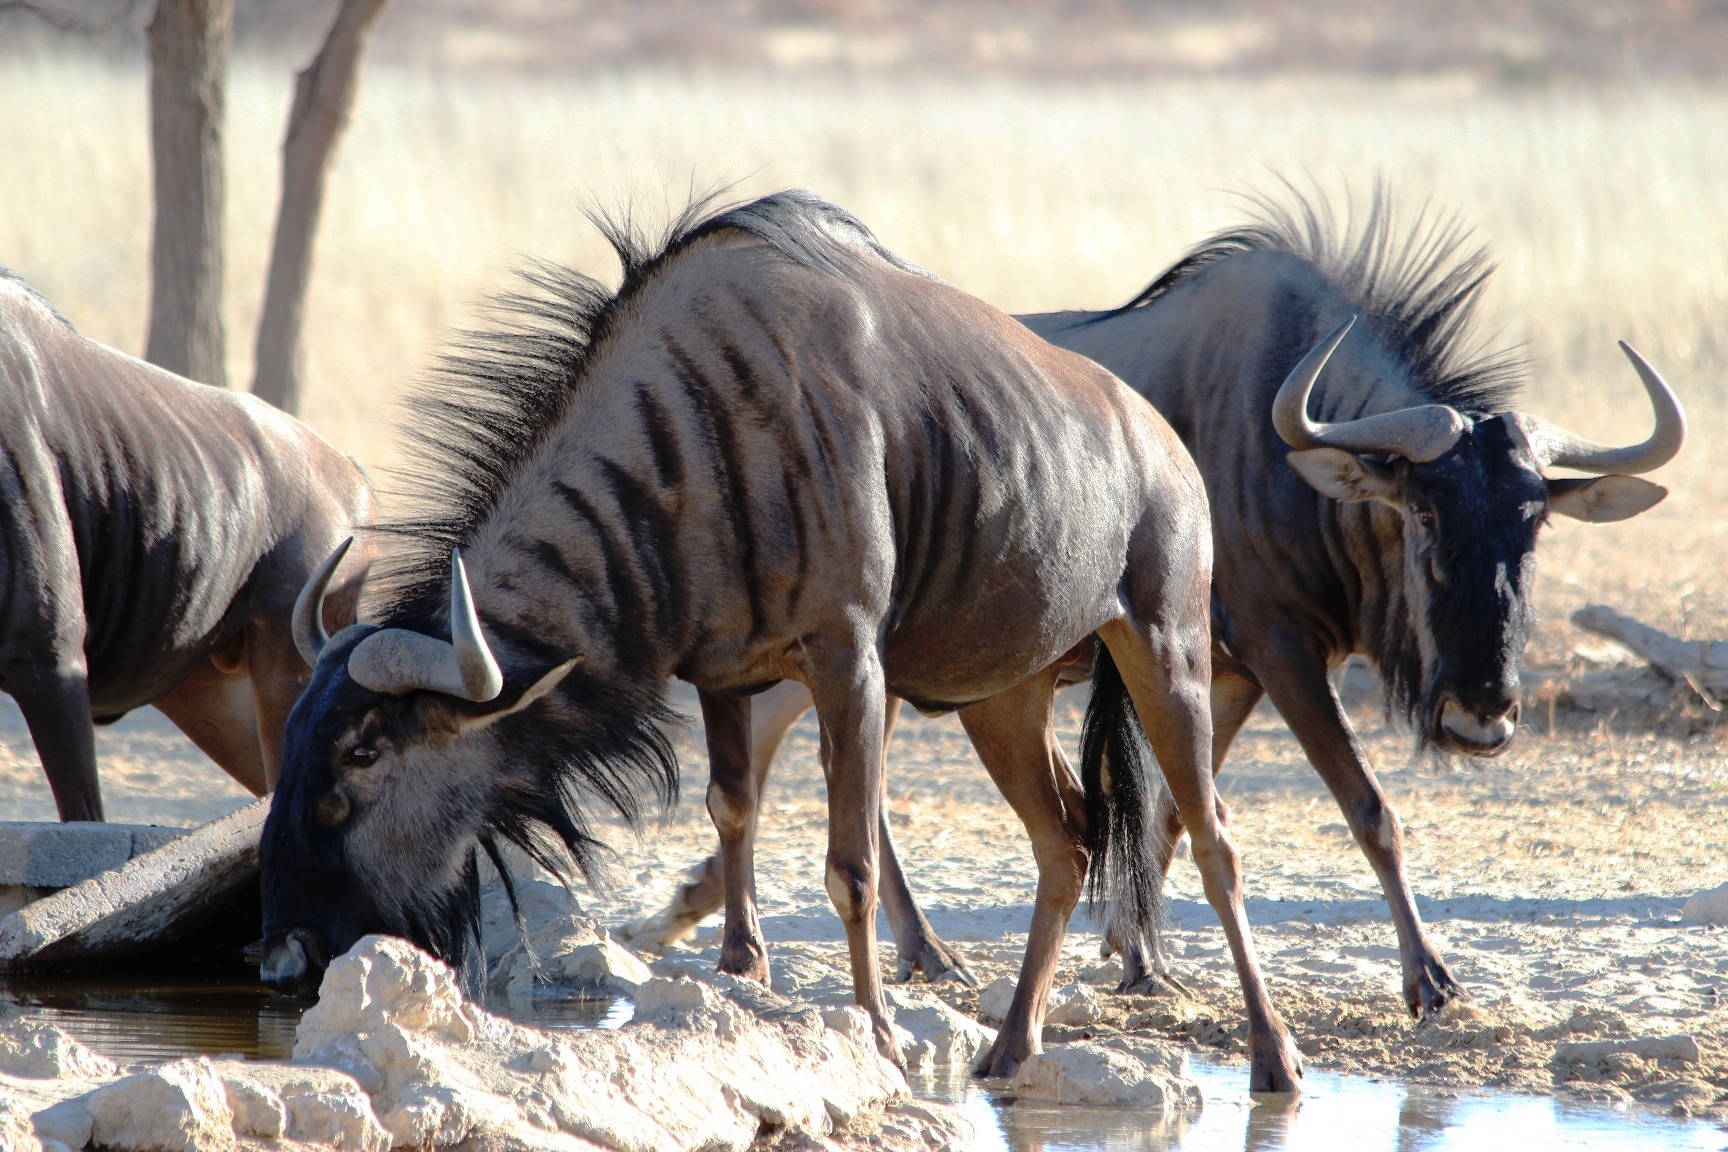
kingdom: Animalia
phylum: Chordata
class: Mammalia
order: Artiodactyla
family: Bovidae
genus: Connochaetes
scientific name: Connochaetes taurinus
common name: Blue wildebeest
